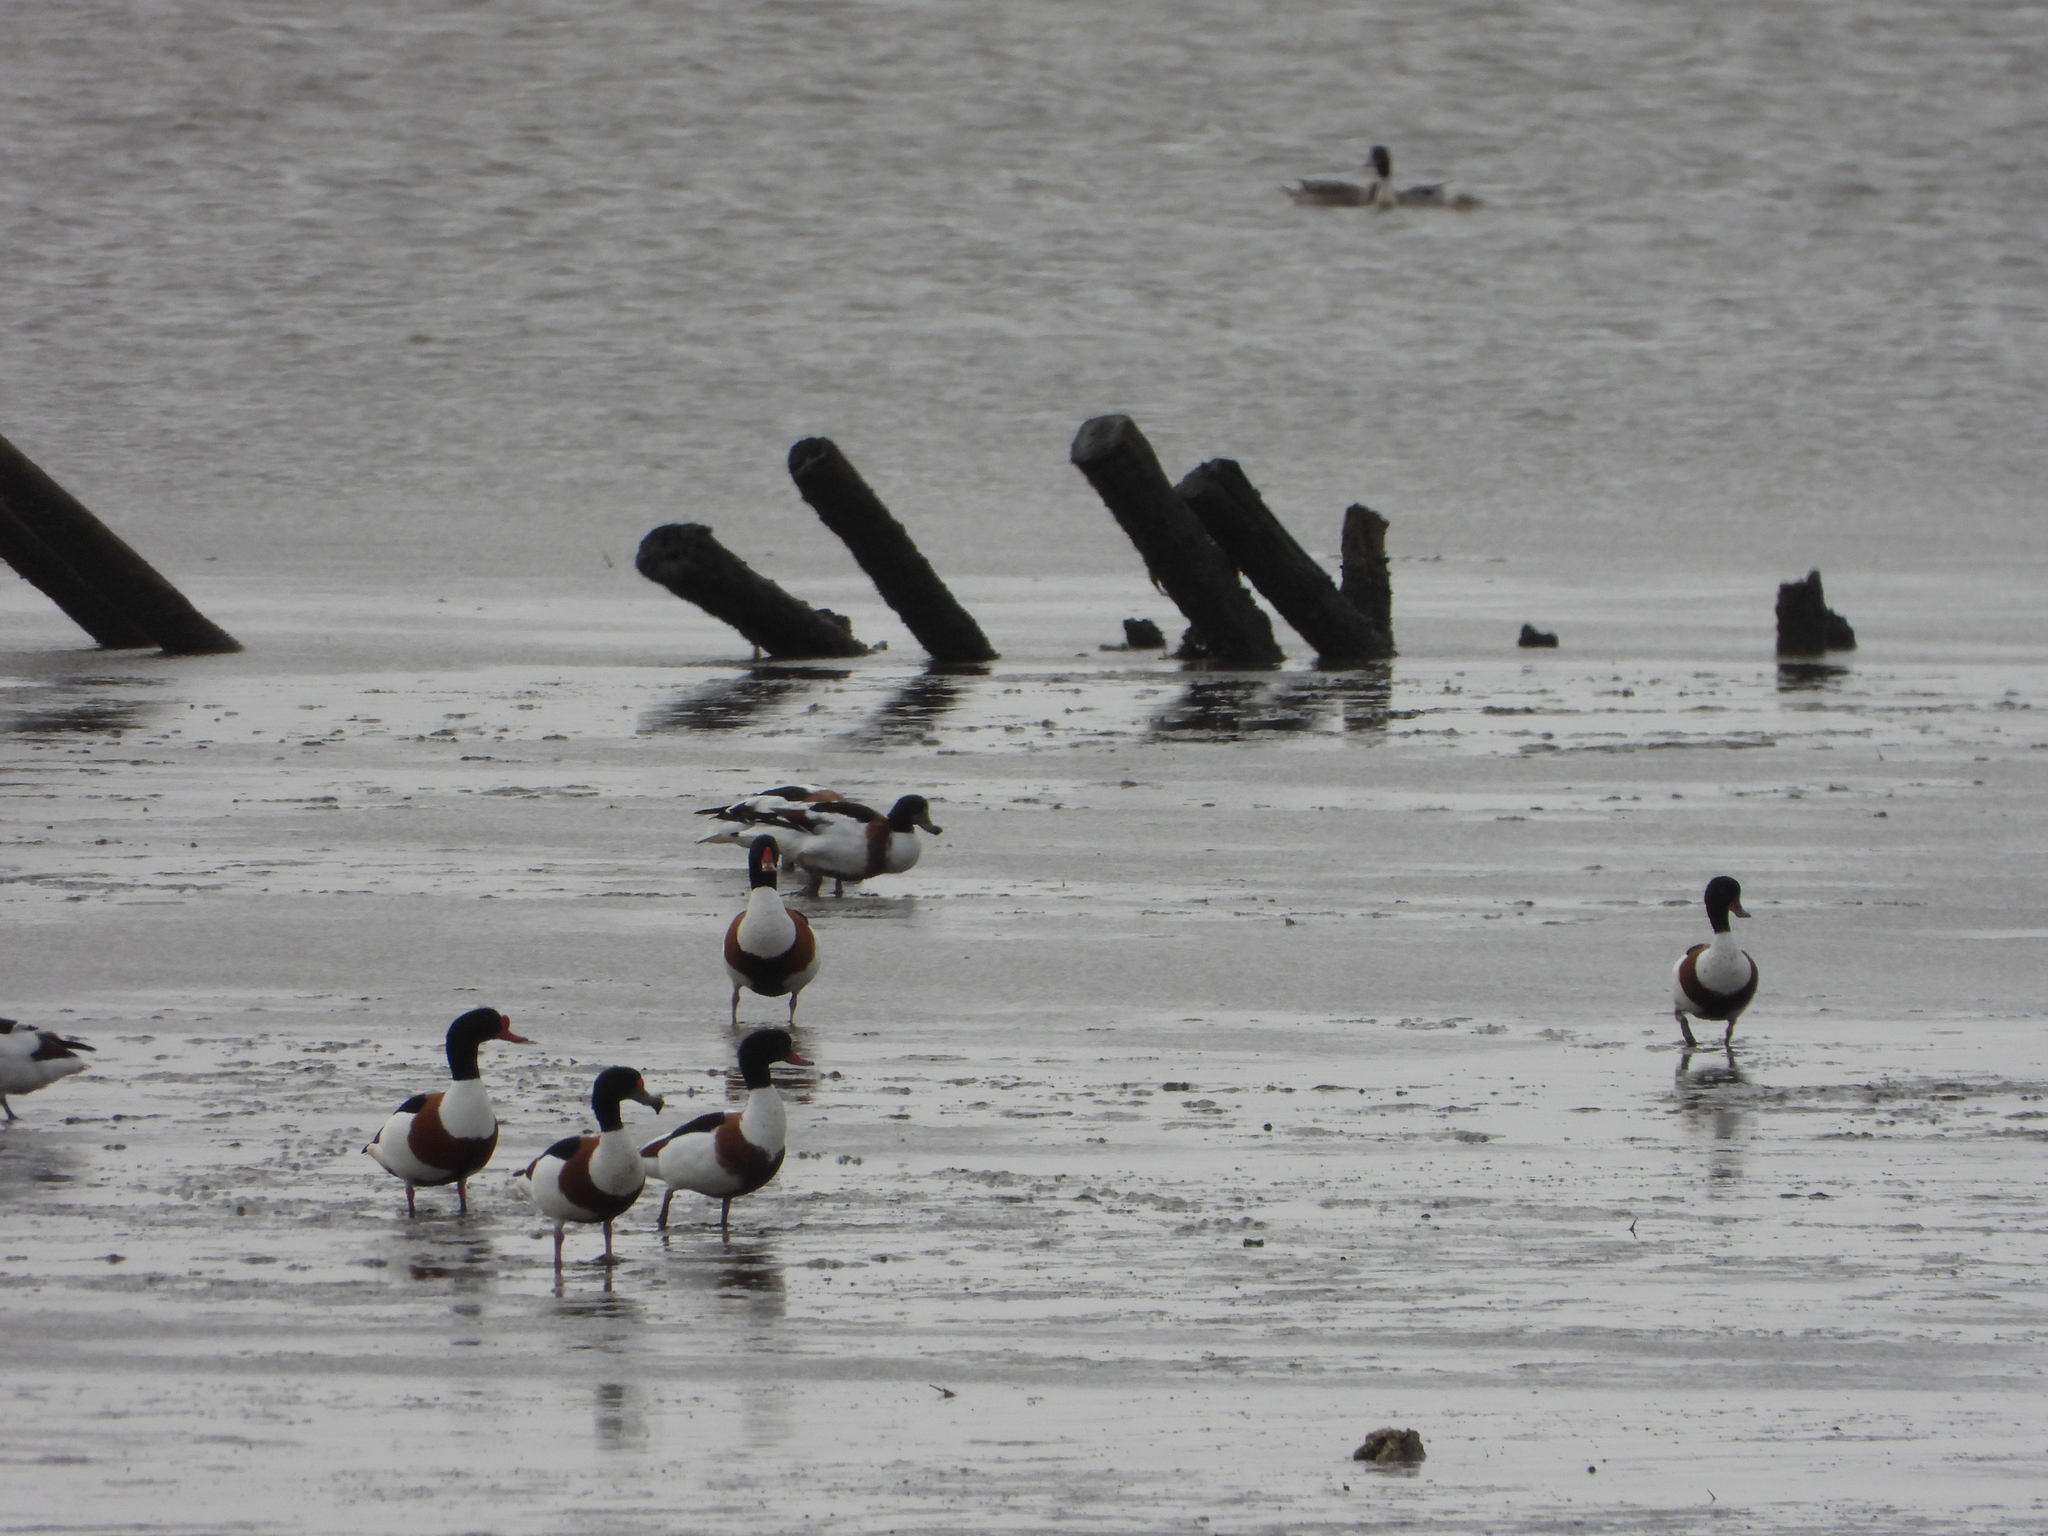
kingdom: Animalia
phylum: Chordata
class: Aves
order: Anseriformes
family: Anatidae
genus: Tadorna
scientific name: Tadorna tadorna
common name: Common shelduck
